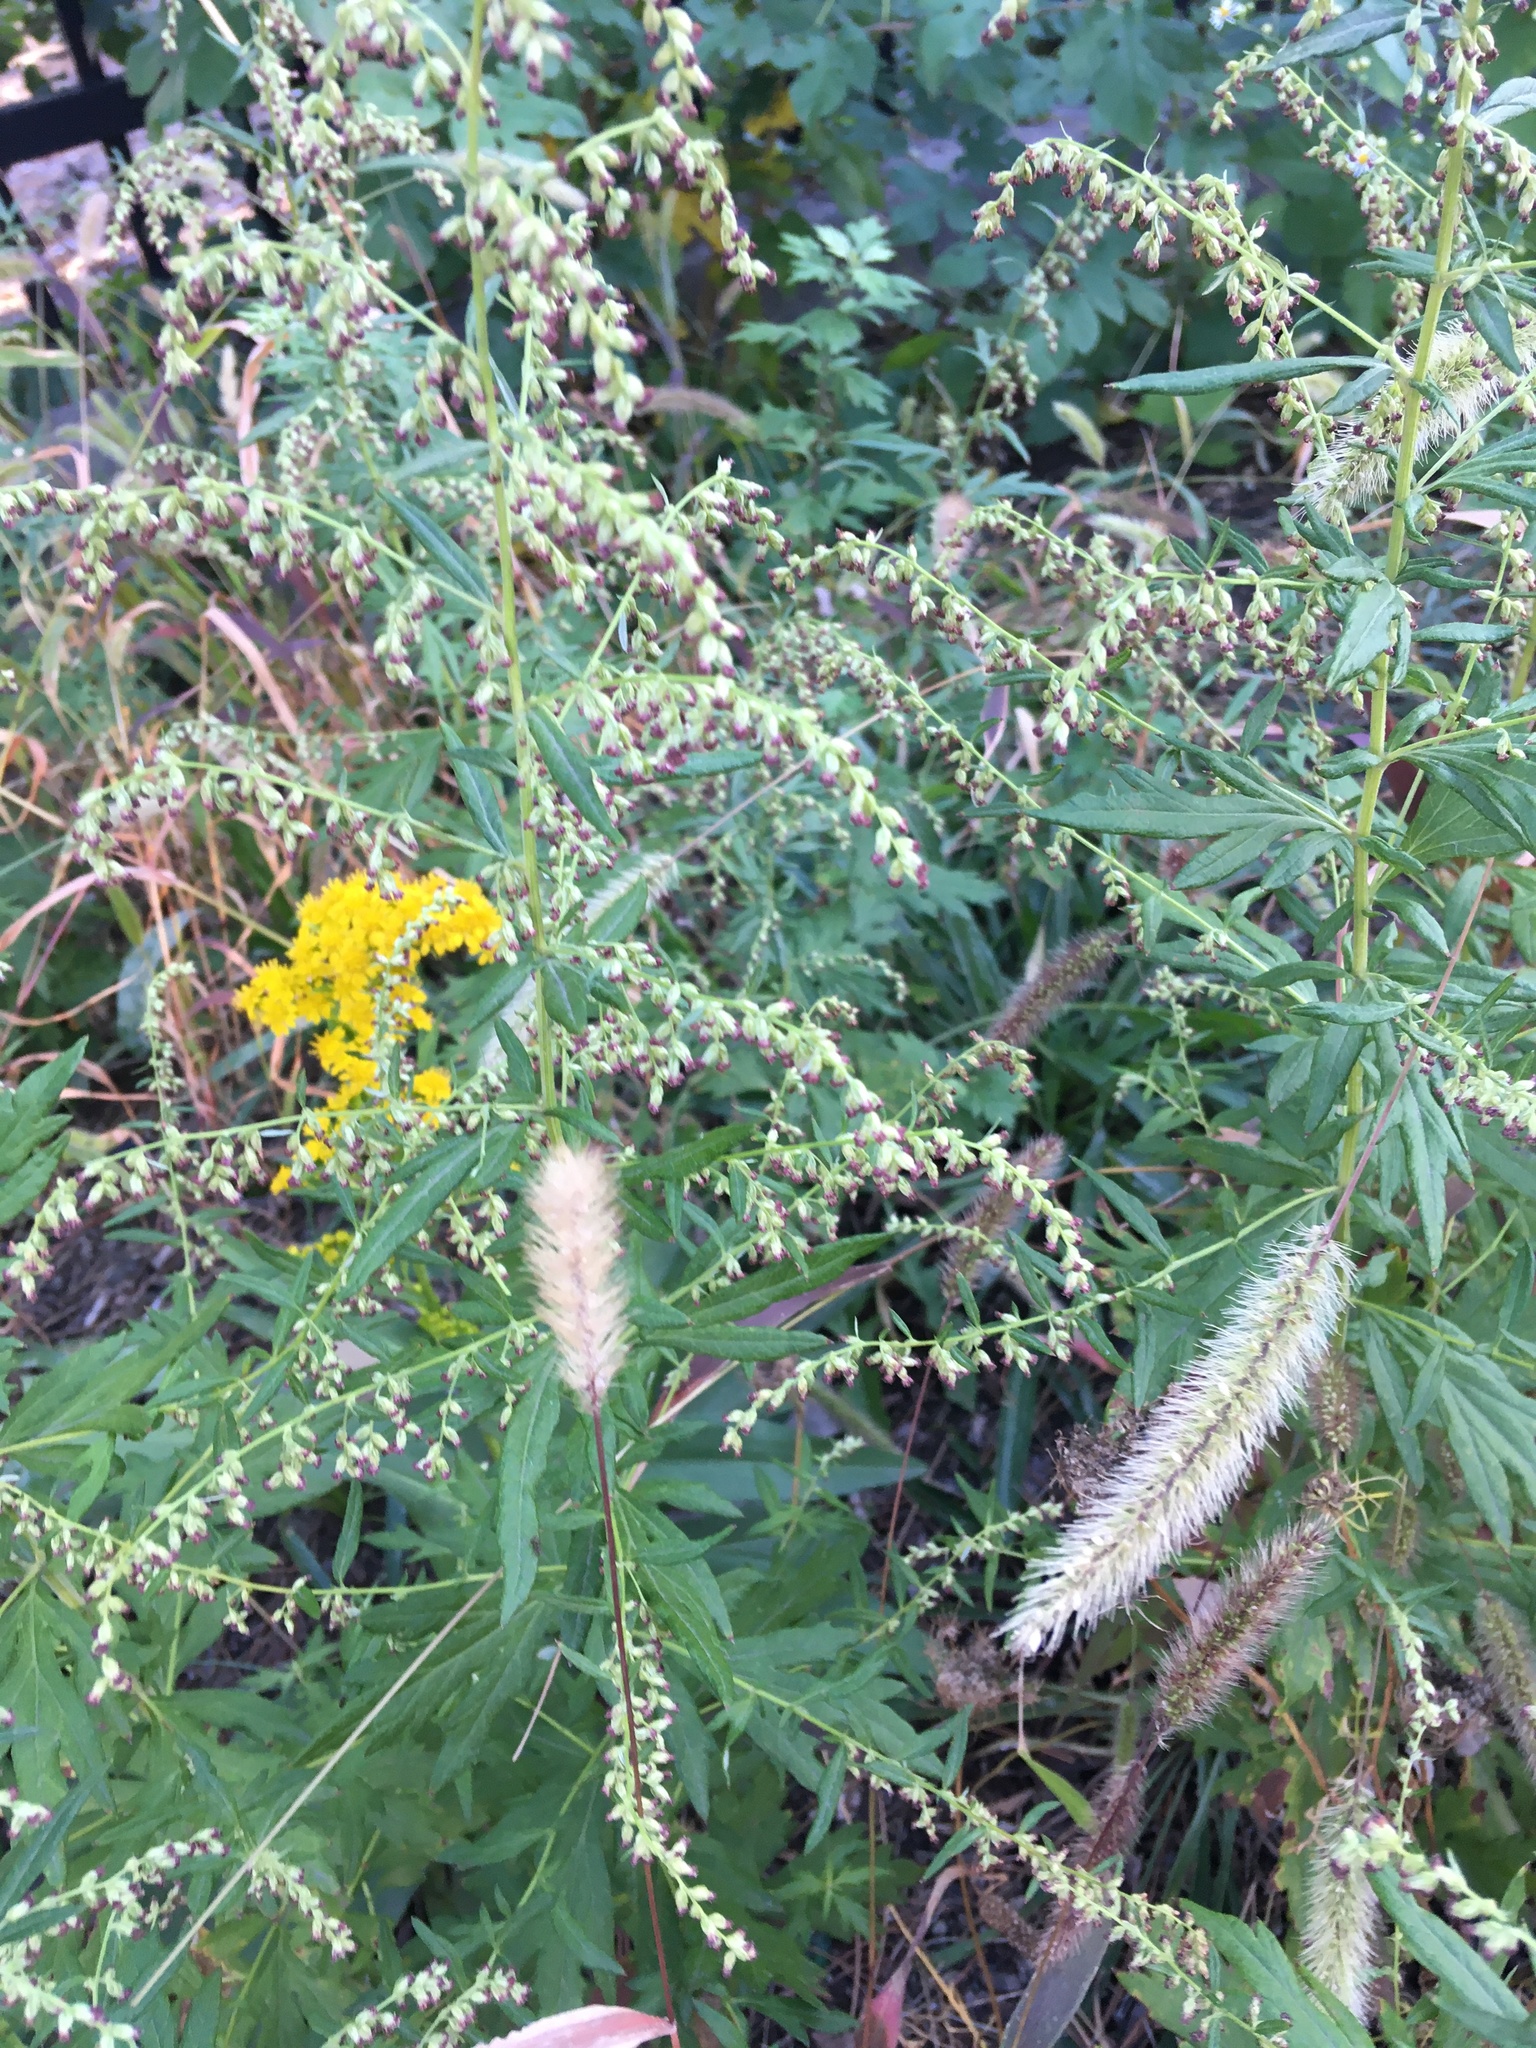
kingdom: Plantae
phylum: Tracheophyta
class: Magnoliopsida
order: Asterales
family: Asteraceae
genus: Artemisia
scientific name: Artemisia vulgaris
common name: Mugwort
